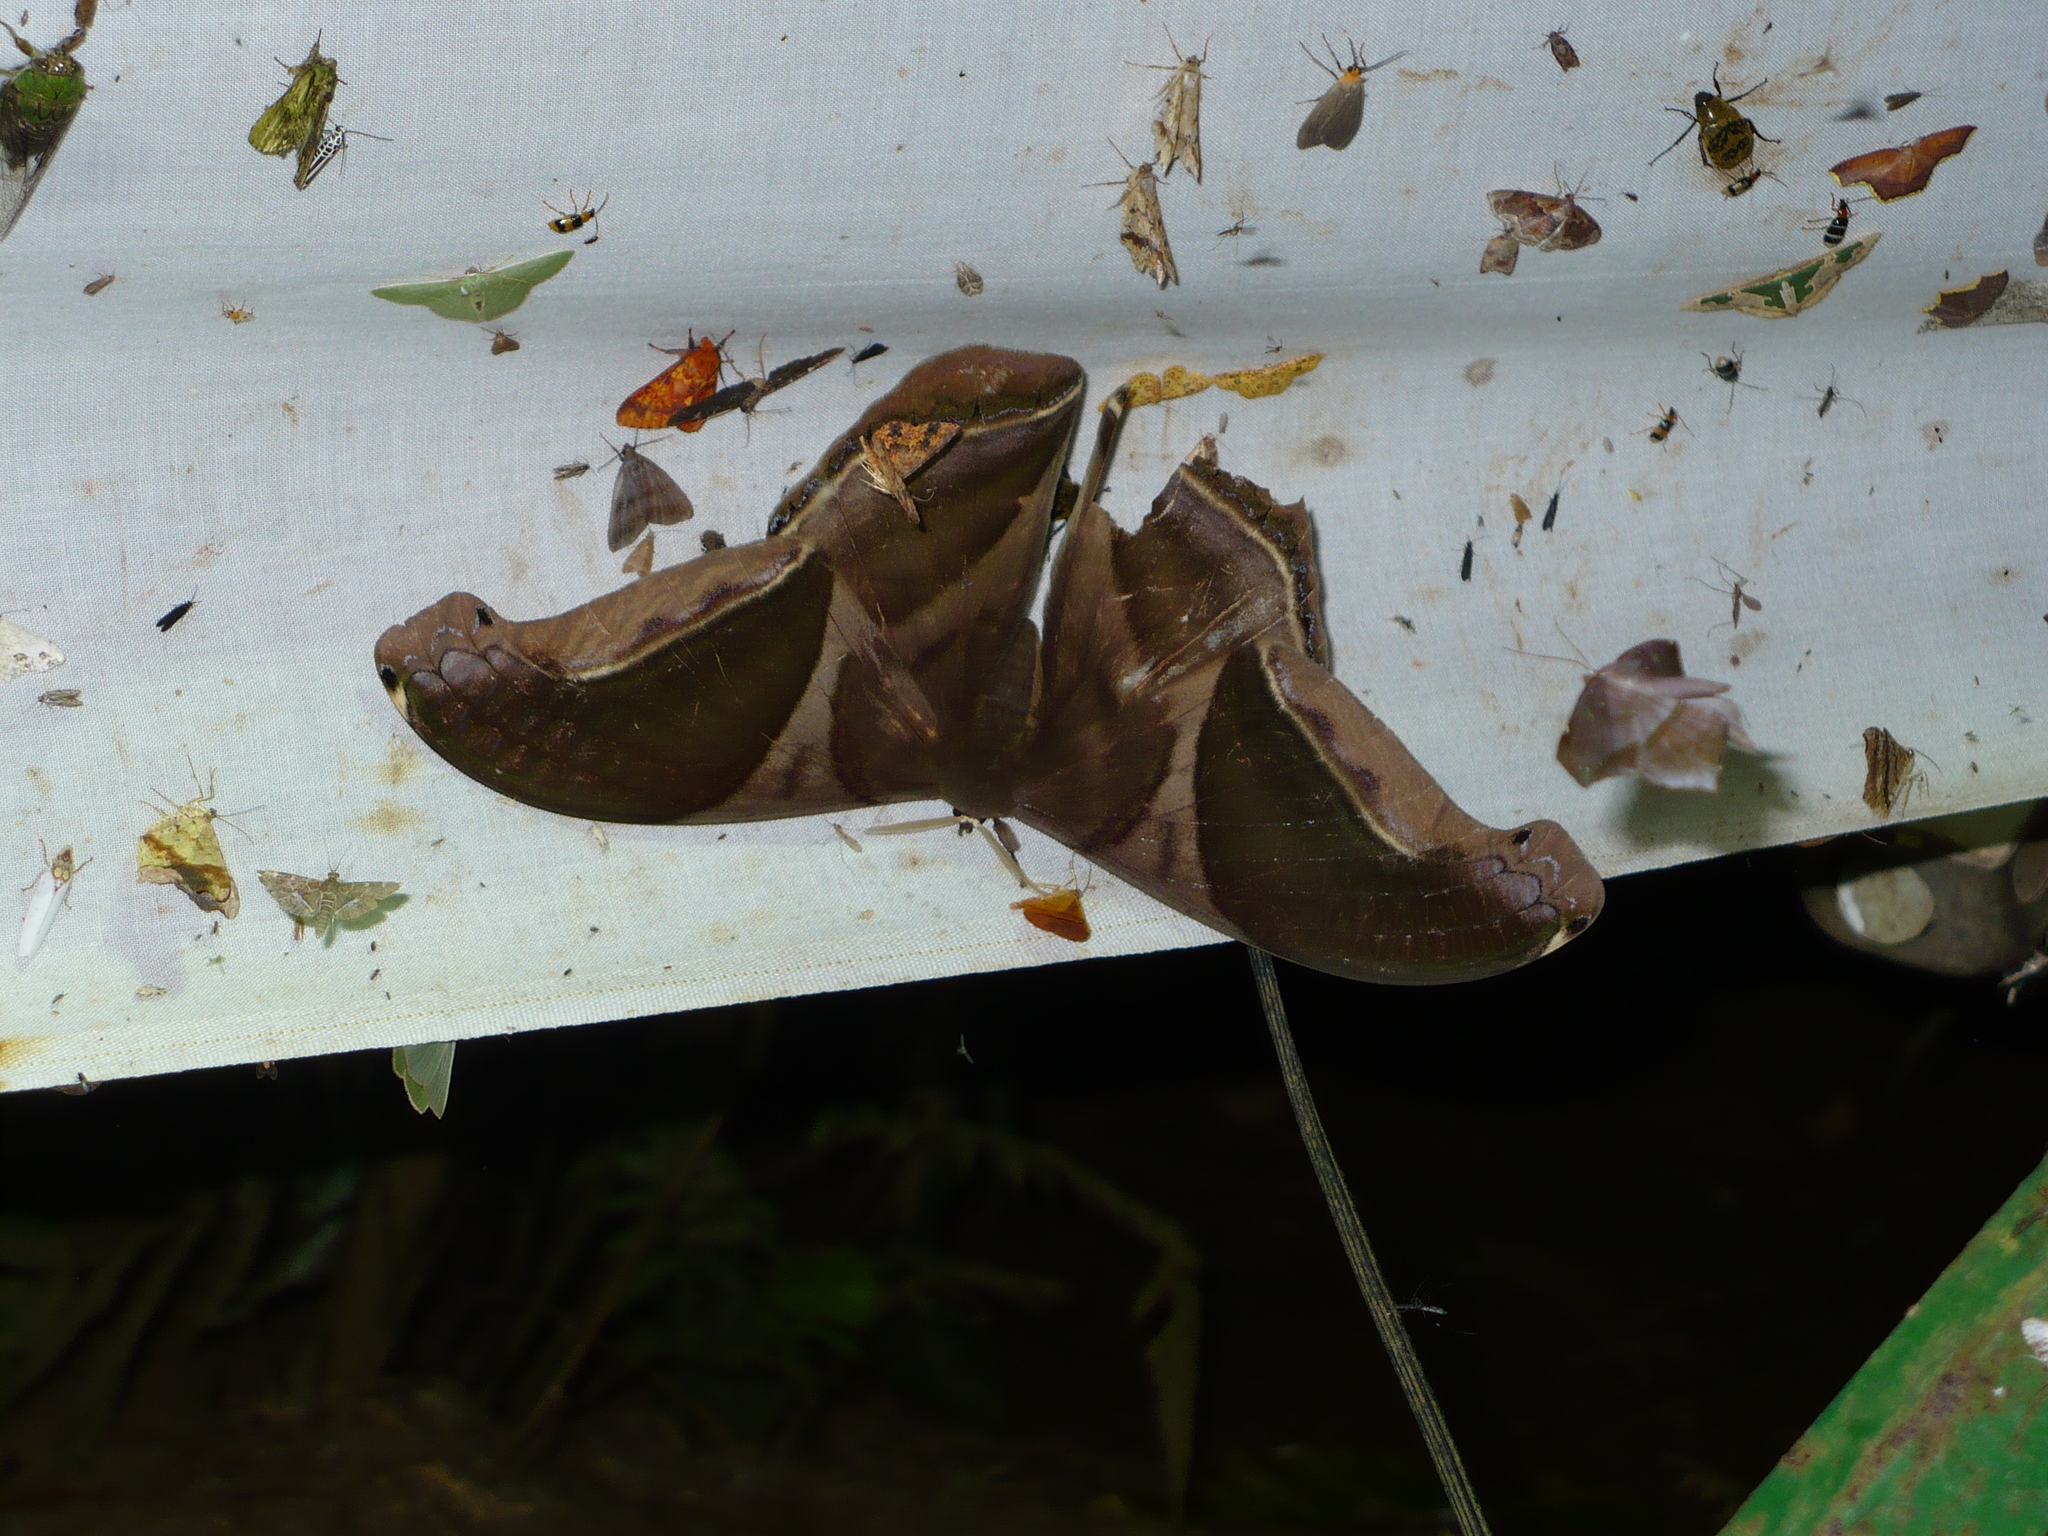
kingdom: Animalia
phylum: Arthropoda
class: Insecta
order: Lepidoptera
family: Saturniidae
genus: Rhescyntis
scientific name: Rhescyntis hippodamia
